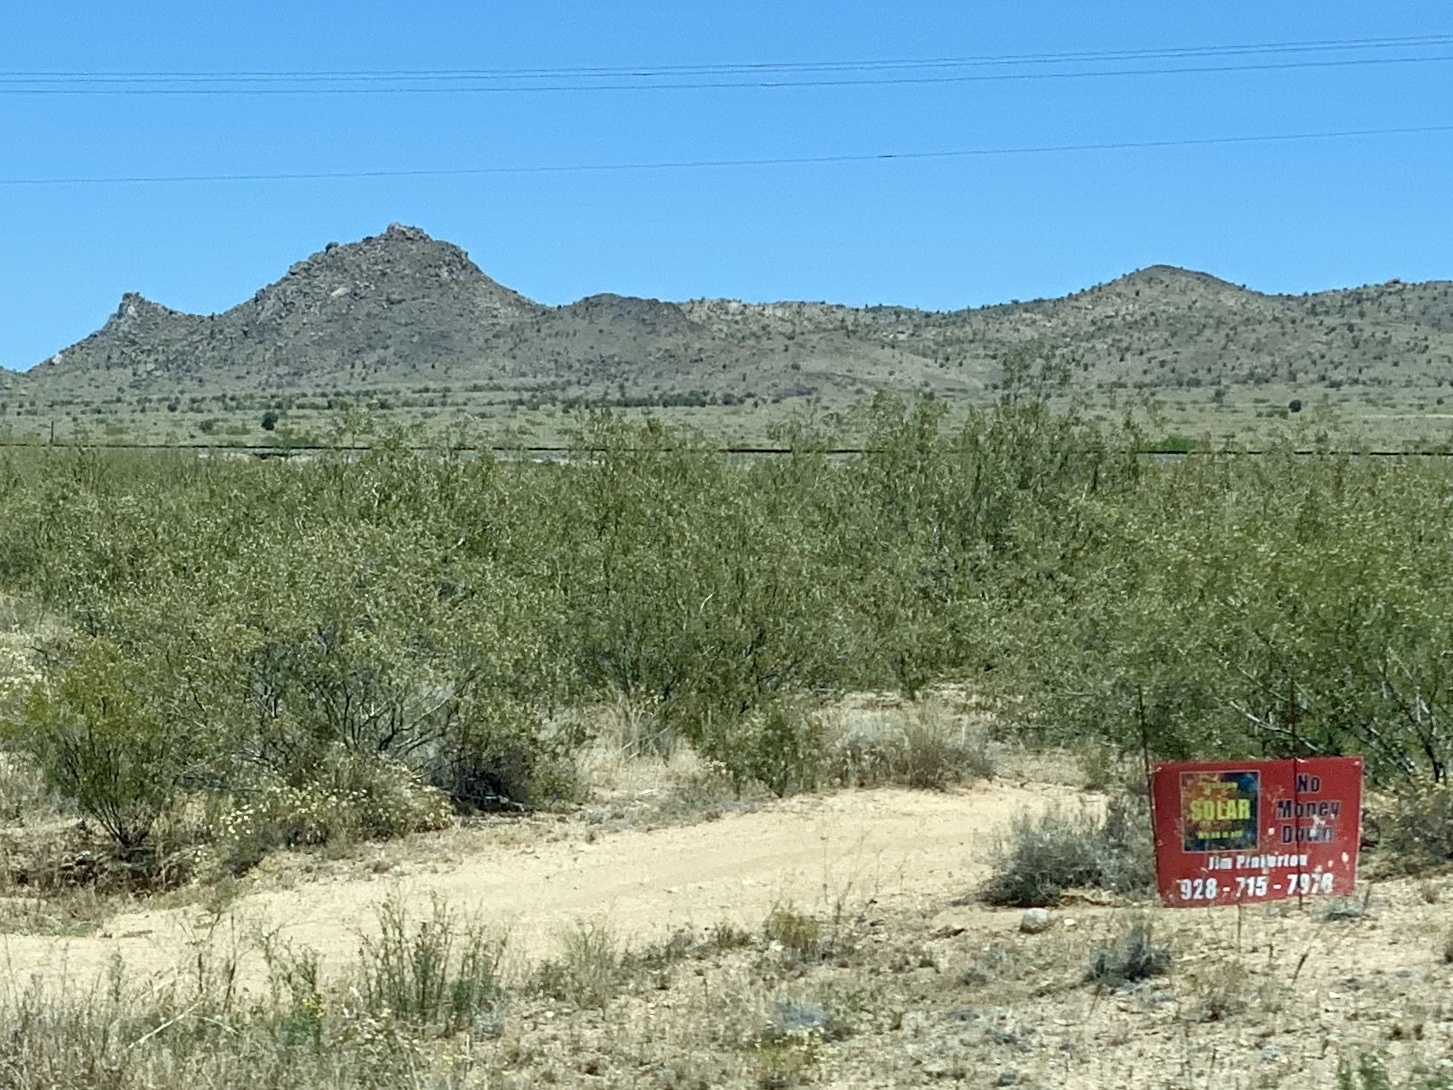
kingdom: Plantae
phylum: Tracheophyta
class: Magnoliopsida
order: Zygophyllales
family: Zygophyllaceae
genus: Larrea
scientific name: Larrea tridentata
